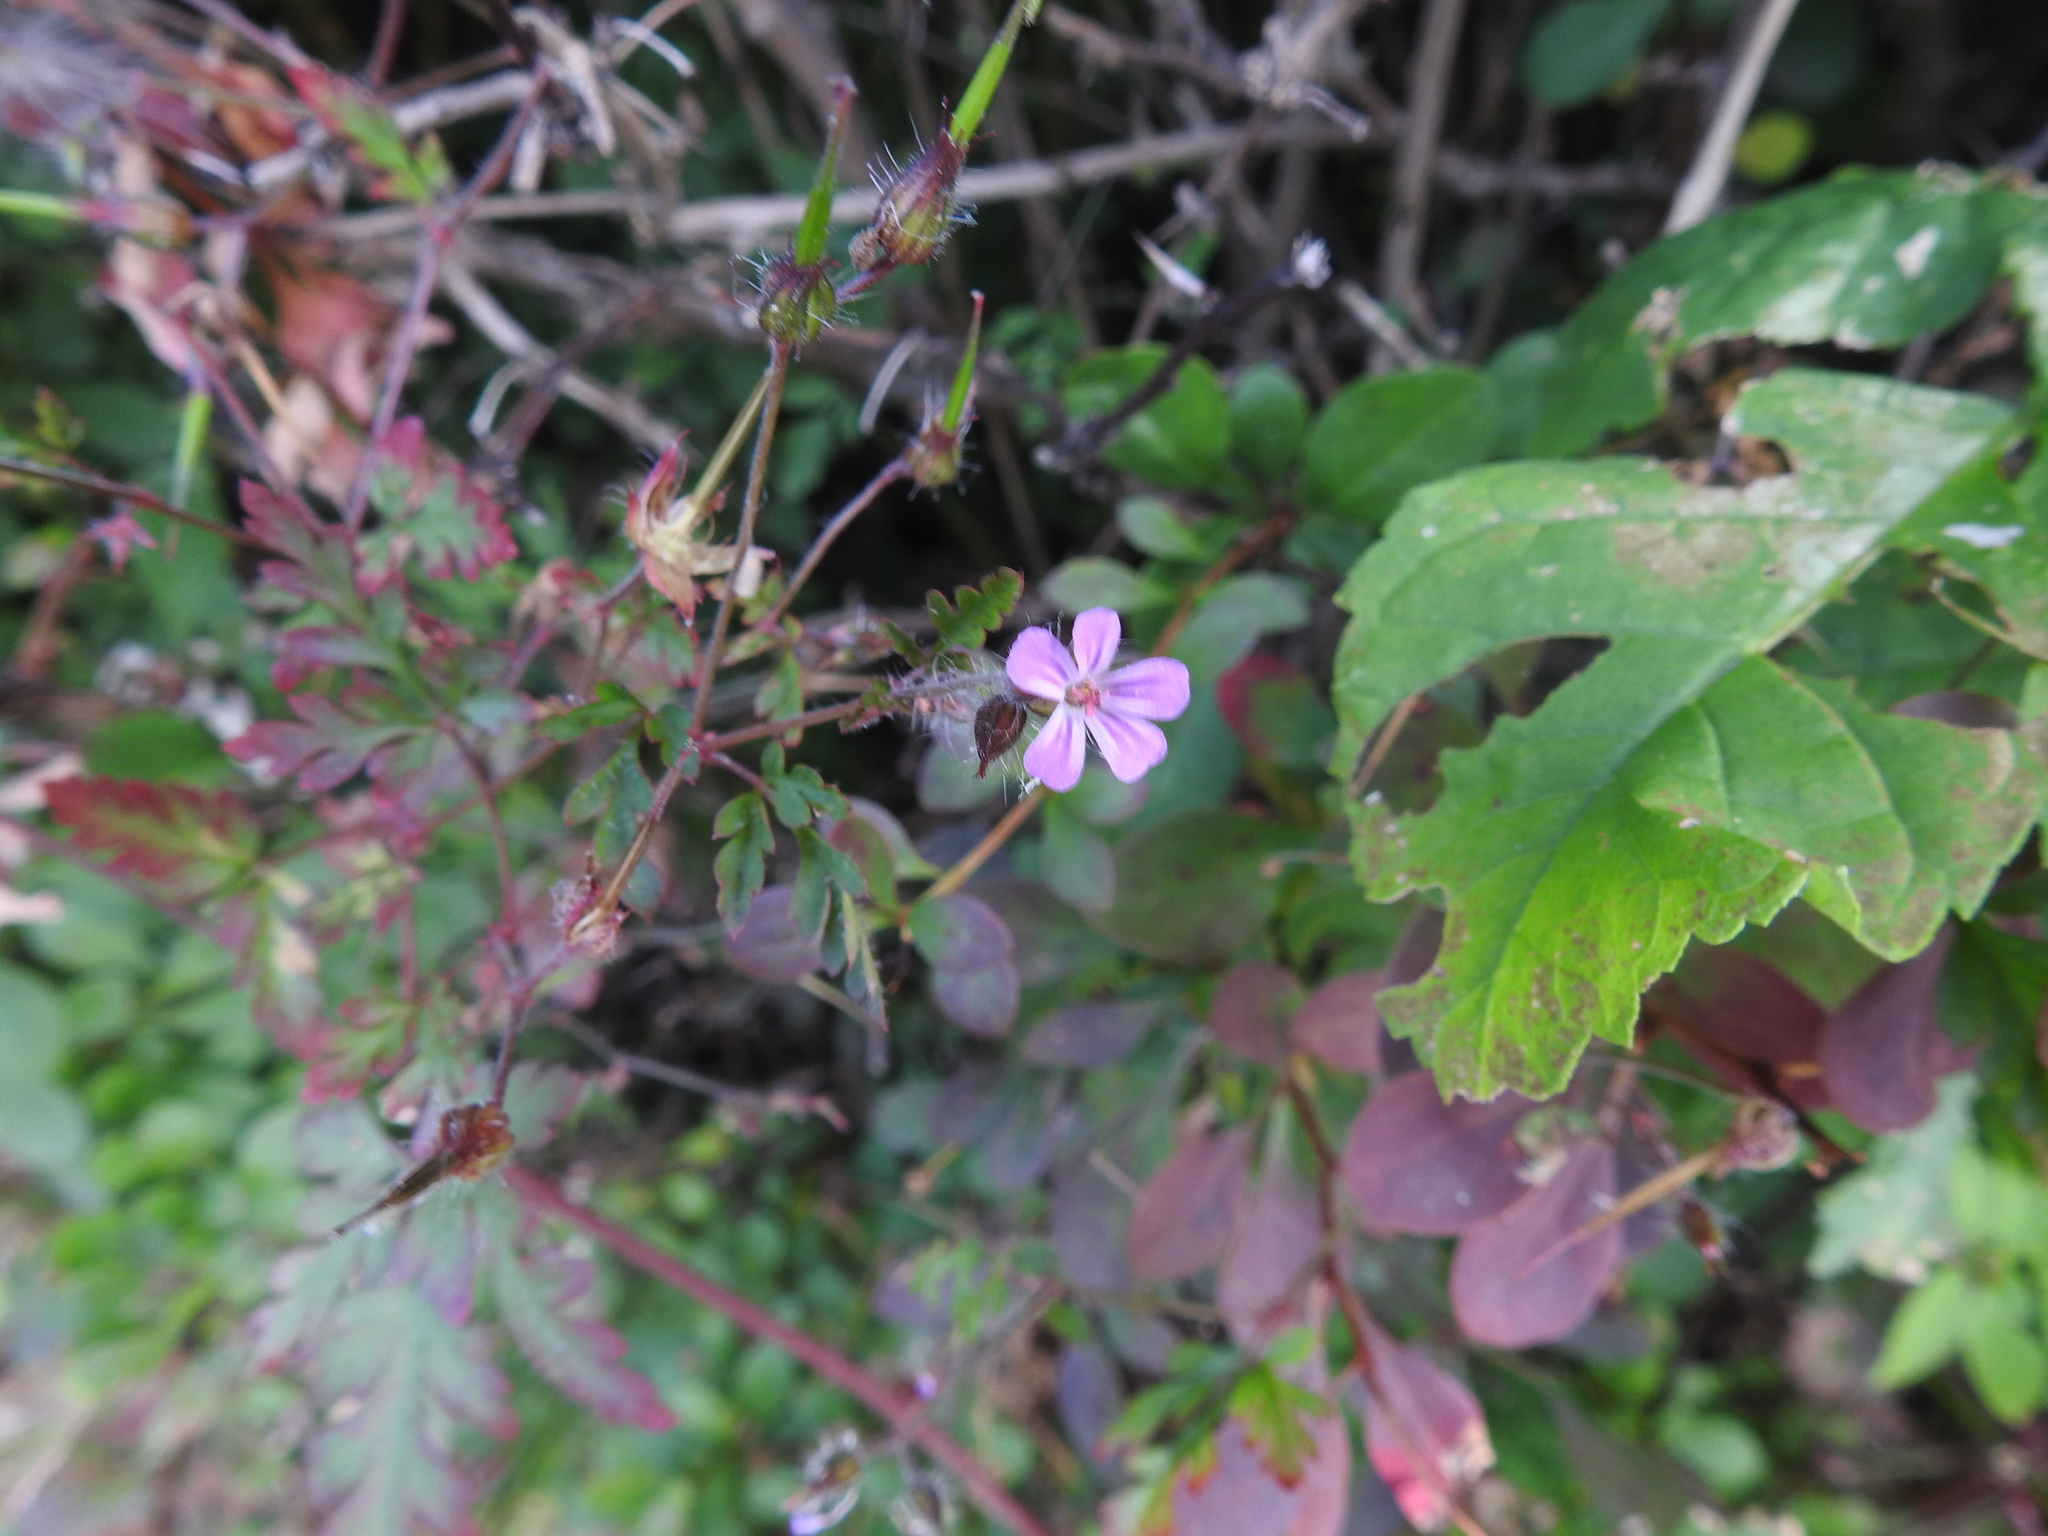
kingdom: Plantae
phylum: Tracheophyta
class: Magnoliopsida
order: Geraniales
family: Geraniaceae
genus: Geranium
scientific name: Geranium robertianum
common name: Herb-robert
